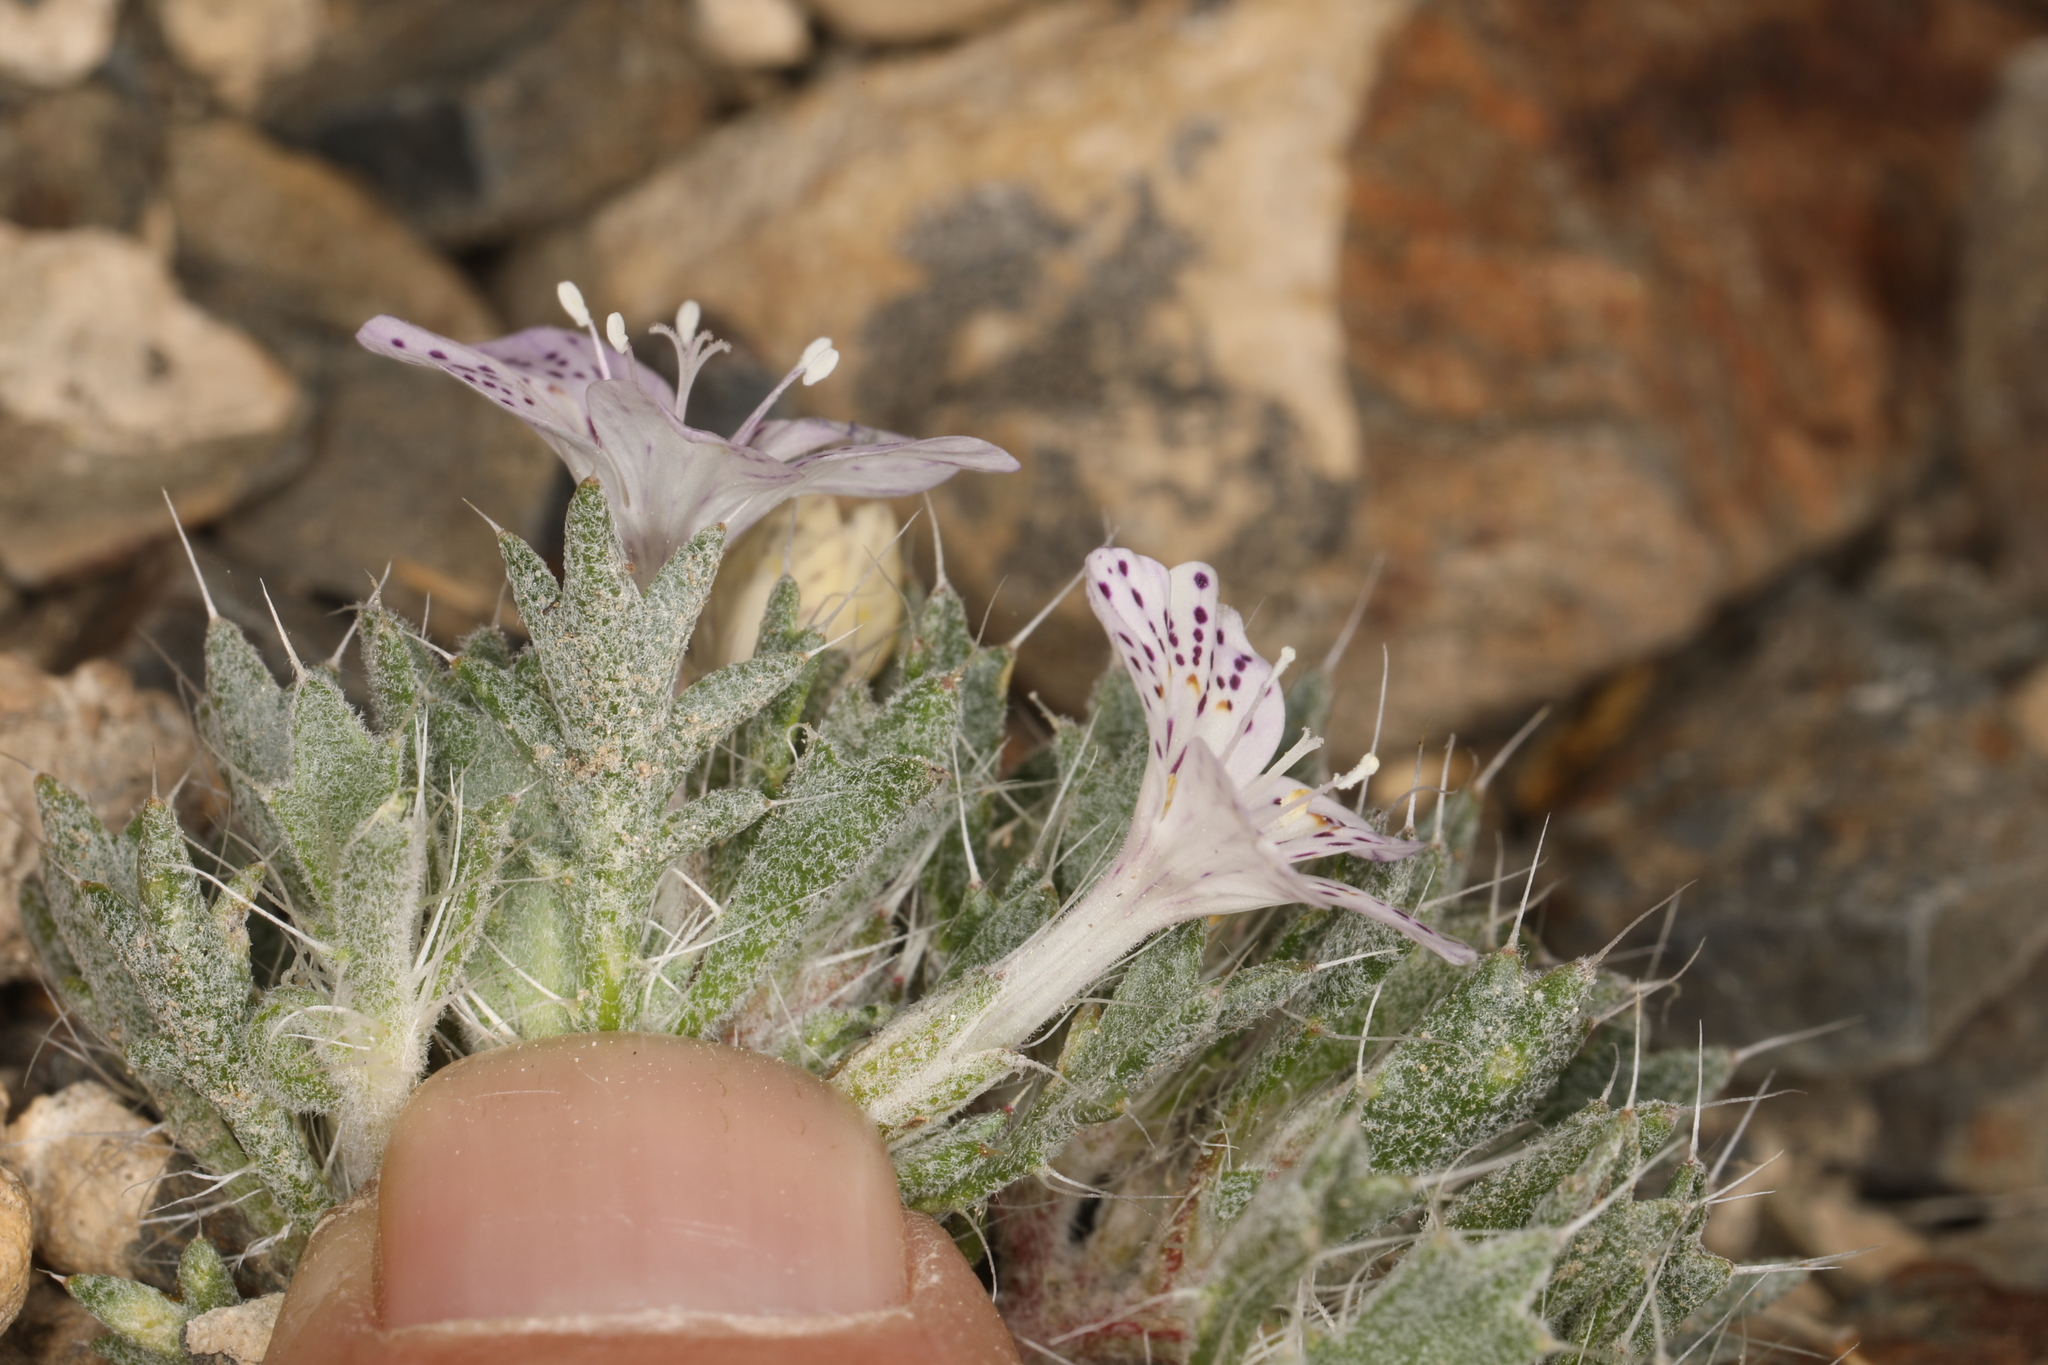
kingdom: Plantae
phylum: Tracheophyta
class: Magnoliopsida
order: Ericales
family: Polemoniaceae
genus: Langloisia
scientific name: Langloisia setosissima
